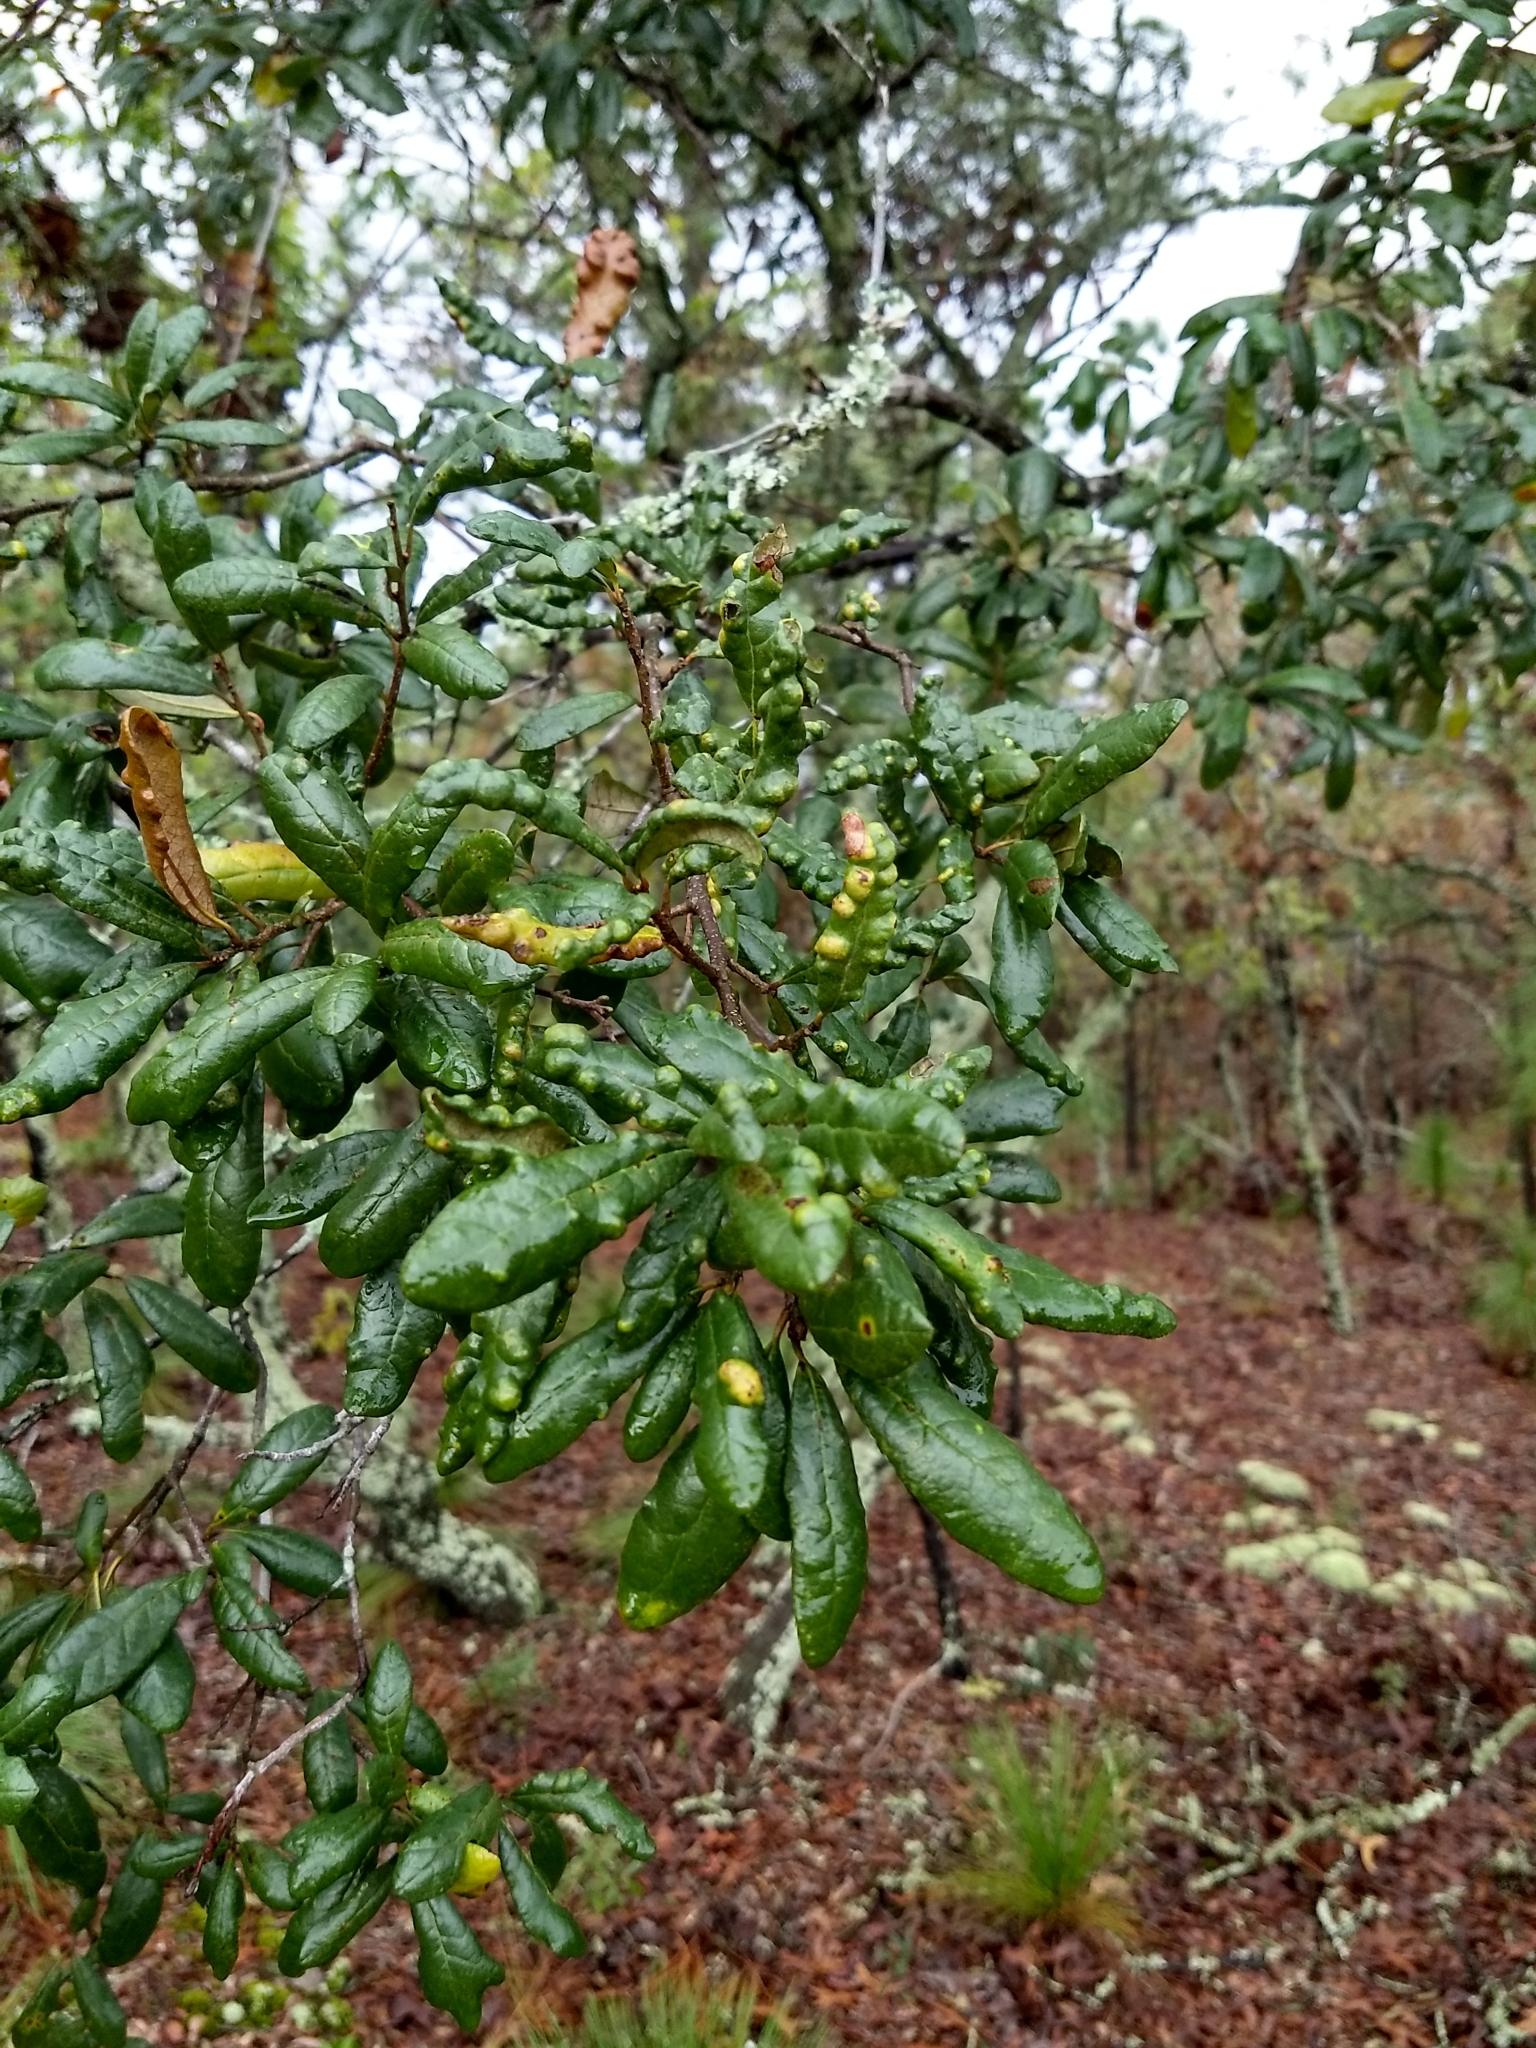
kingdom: Plantae
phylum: Tracheophyta
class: Magnoliopsida
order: Fagales
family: Fagaceae
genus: Quercus
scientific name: Quercus geminata
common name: Sand live oak
